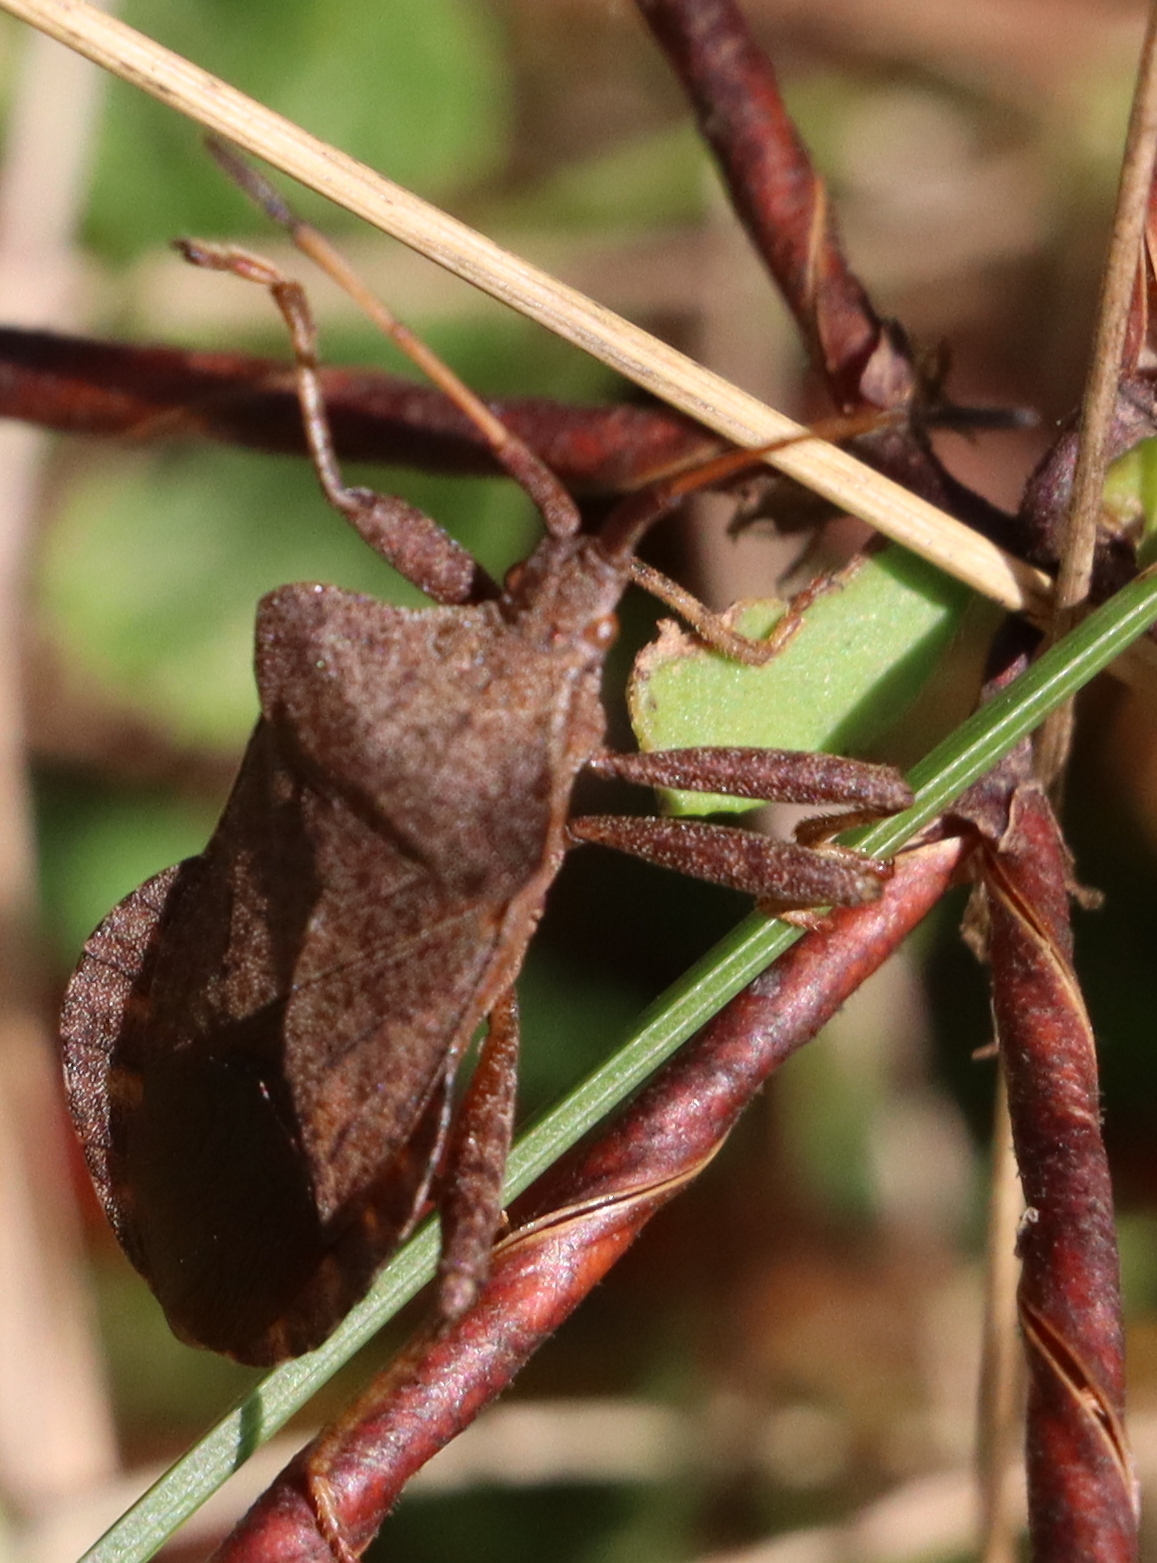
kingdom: Animalia
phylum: Arthropoda
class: Insecta
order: Hemiptera
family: Coreidae
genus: Coreus
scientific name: Coreus marginatus
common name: Dock bug
